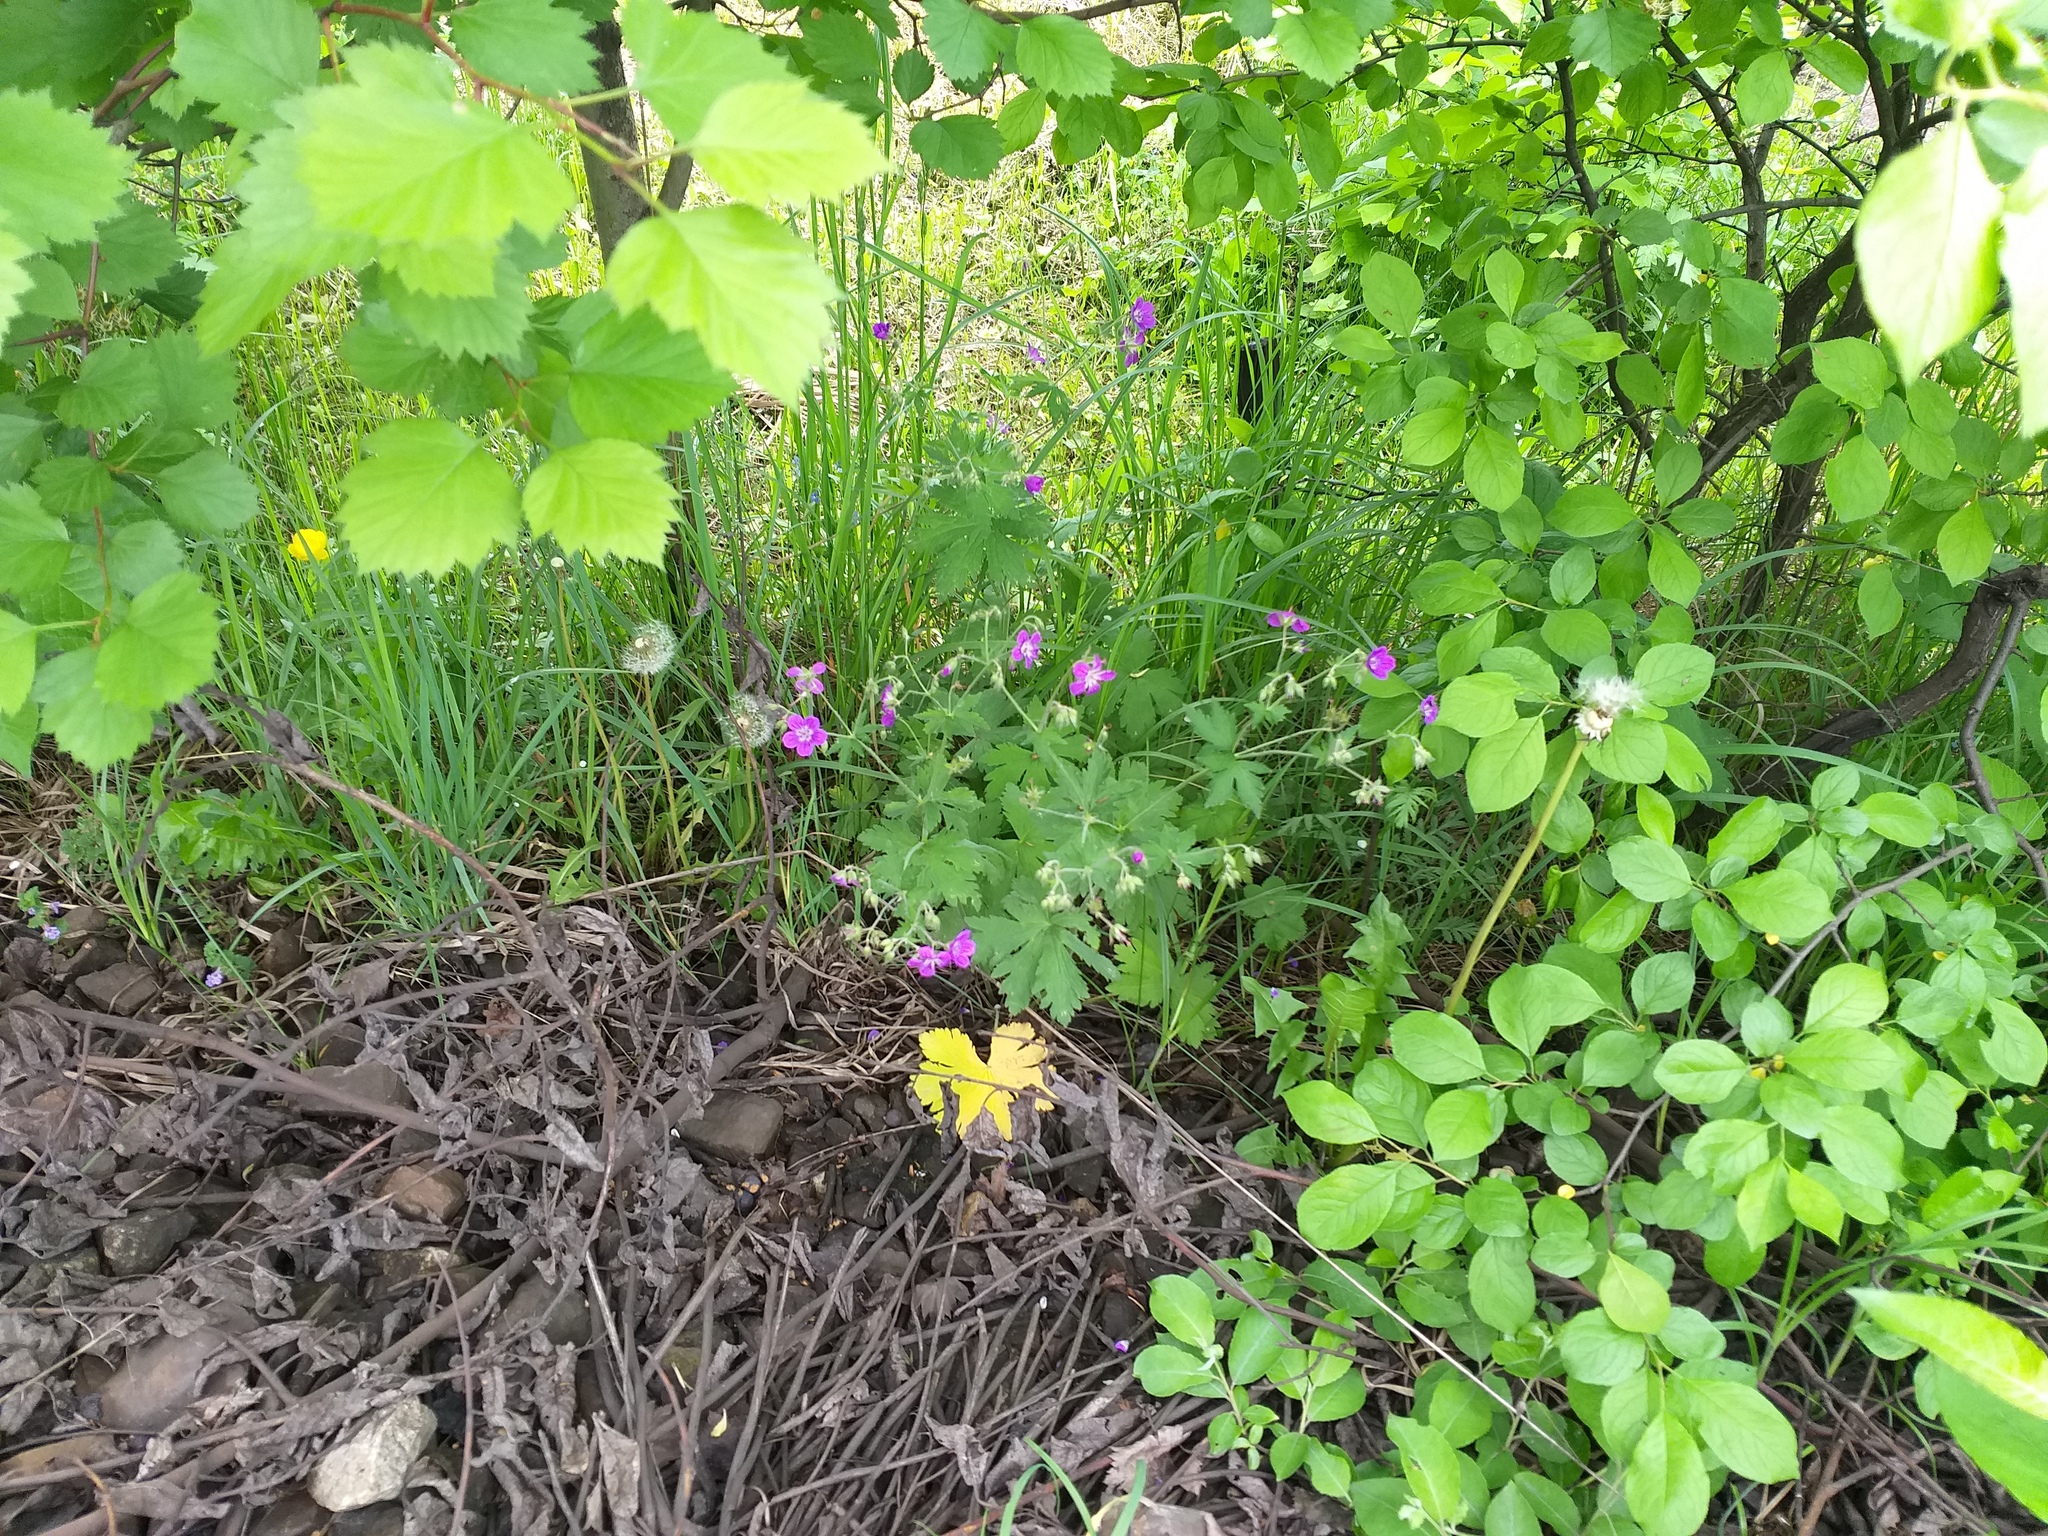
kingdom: Plantae
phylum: Tracheophyta
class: Magnoliopsida
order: Geraniales
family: Geraniaceae
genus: Geranium
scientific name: Geranium sylvaticum
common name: Wood crane's-bill
